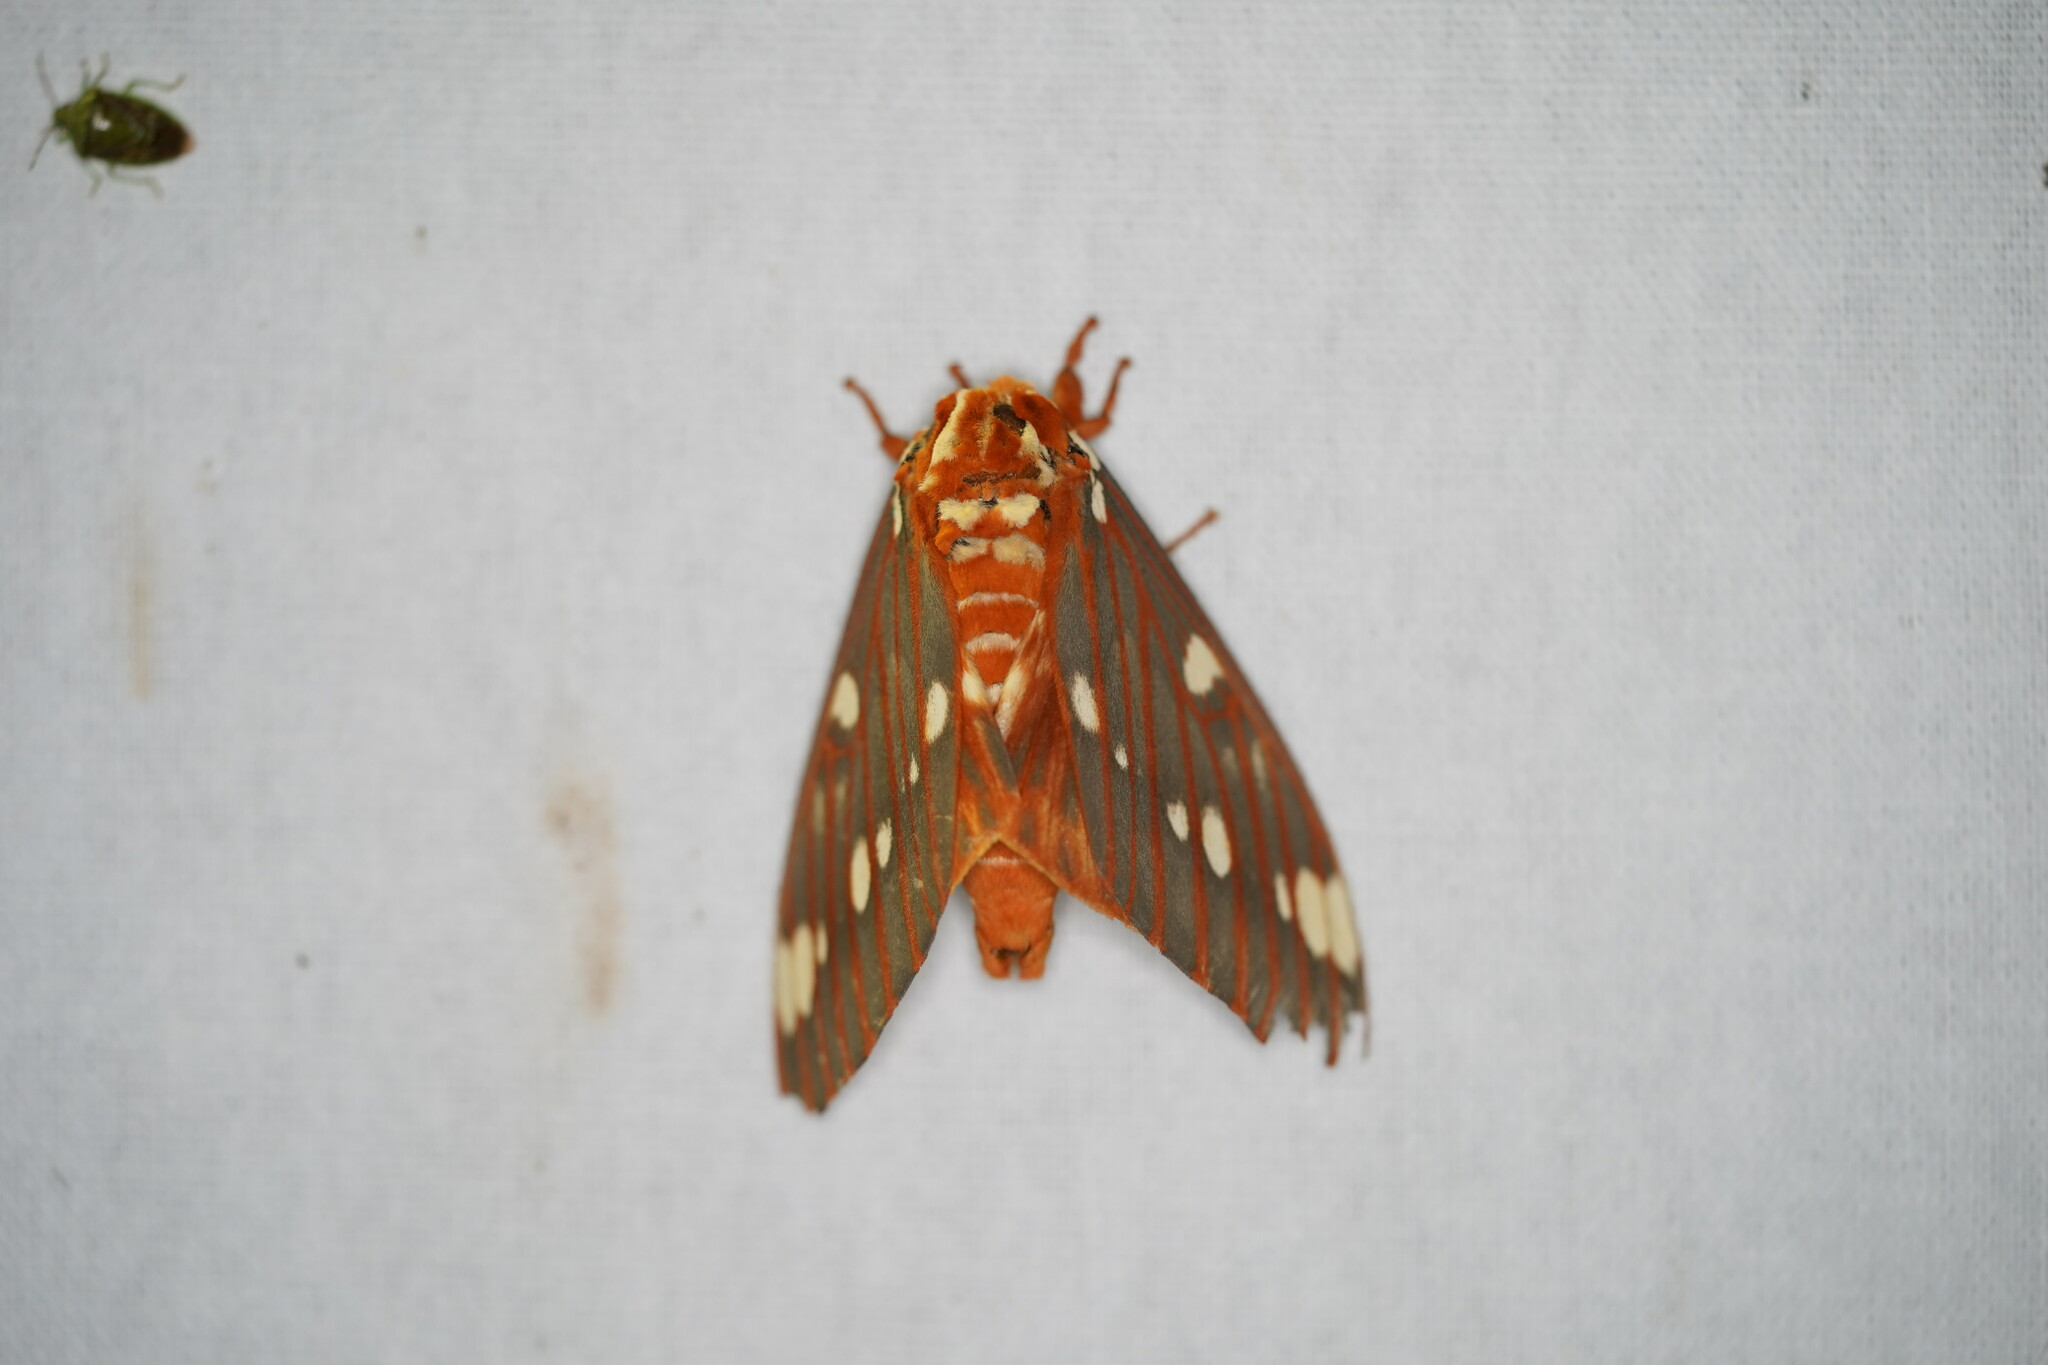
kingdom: Animalia
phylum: Arthropoda
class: Insecta
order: Lepidoptera
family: Saturniidae
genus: Citheronia
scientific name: Citheronia regalis
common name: Hickory horned devil
